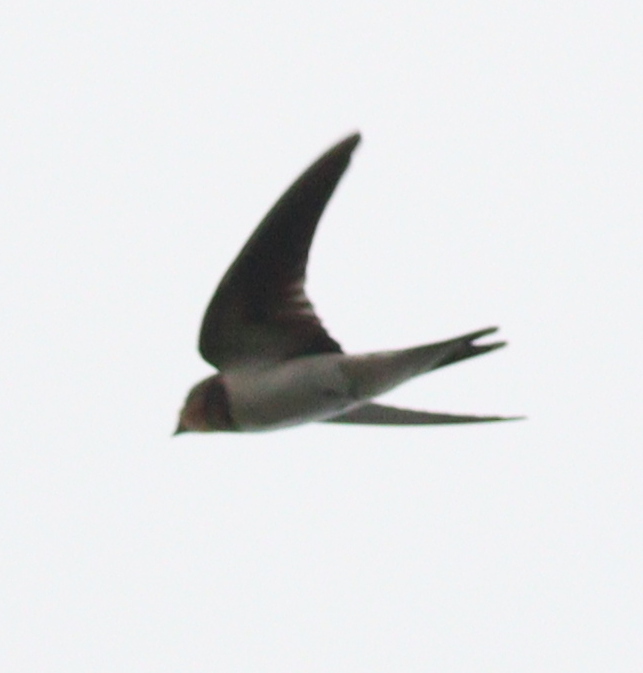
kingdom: Animalia
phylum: Chordata
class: Aves
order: Passeriformes
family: Hirundinidae
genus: Hirundo
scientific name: Hirundo rustica
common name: Barn swallow
